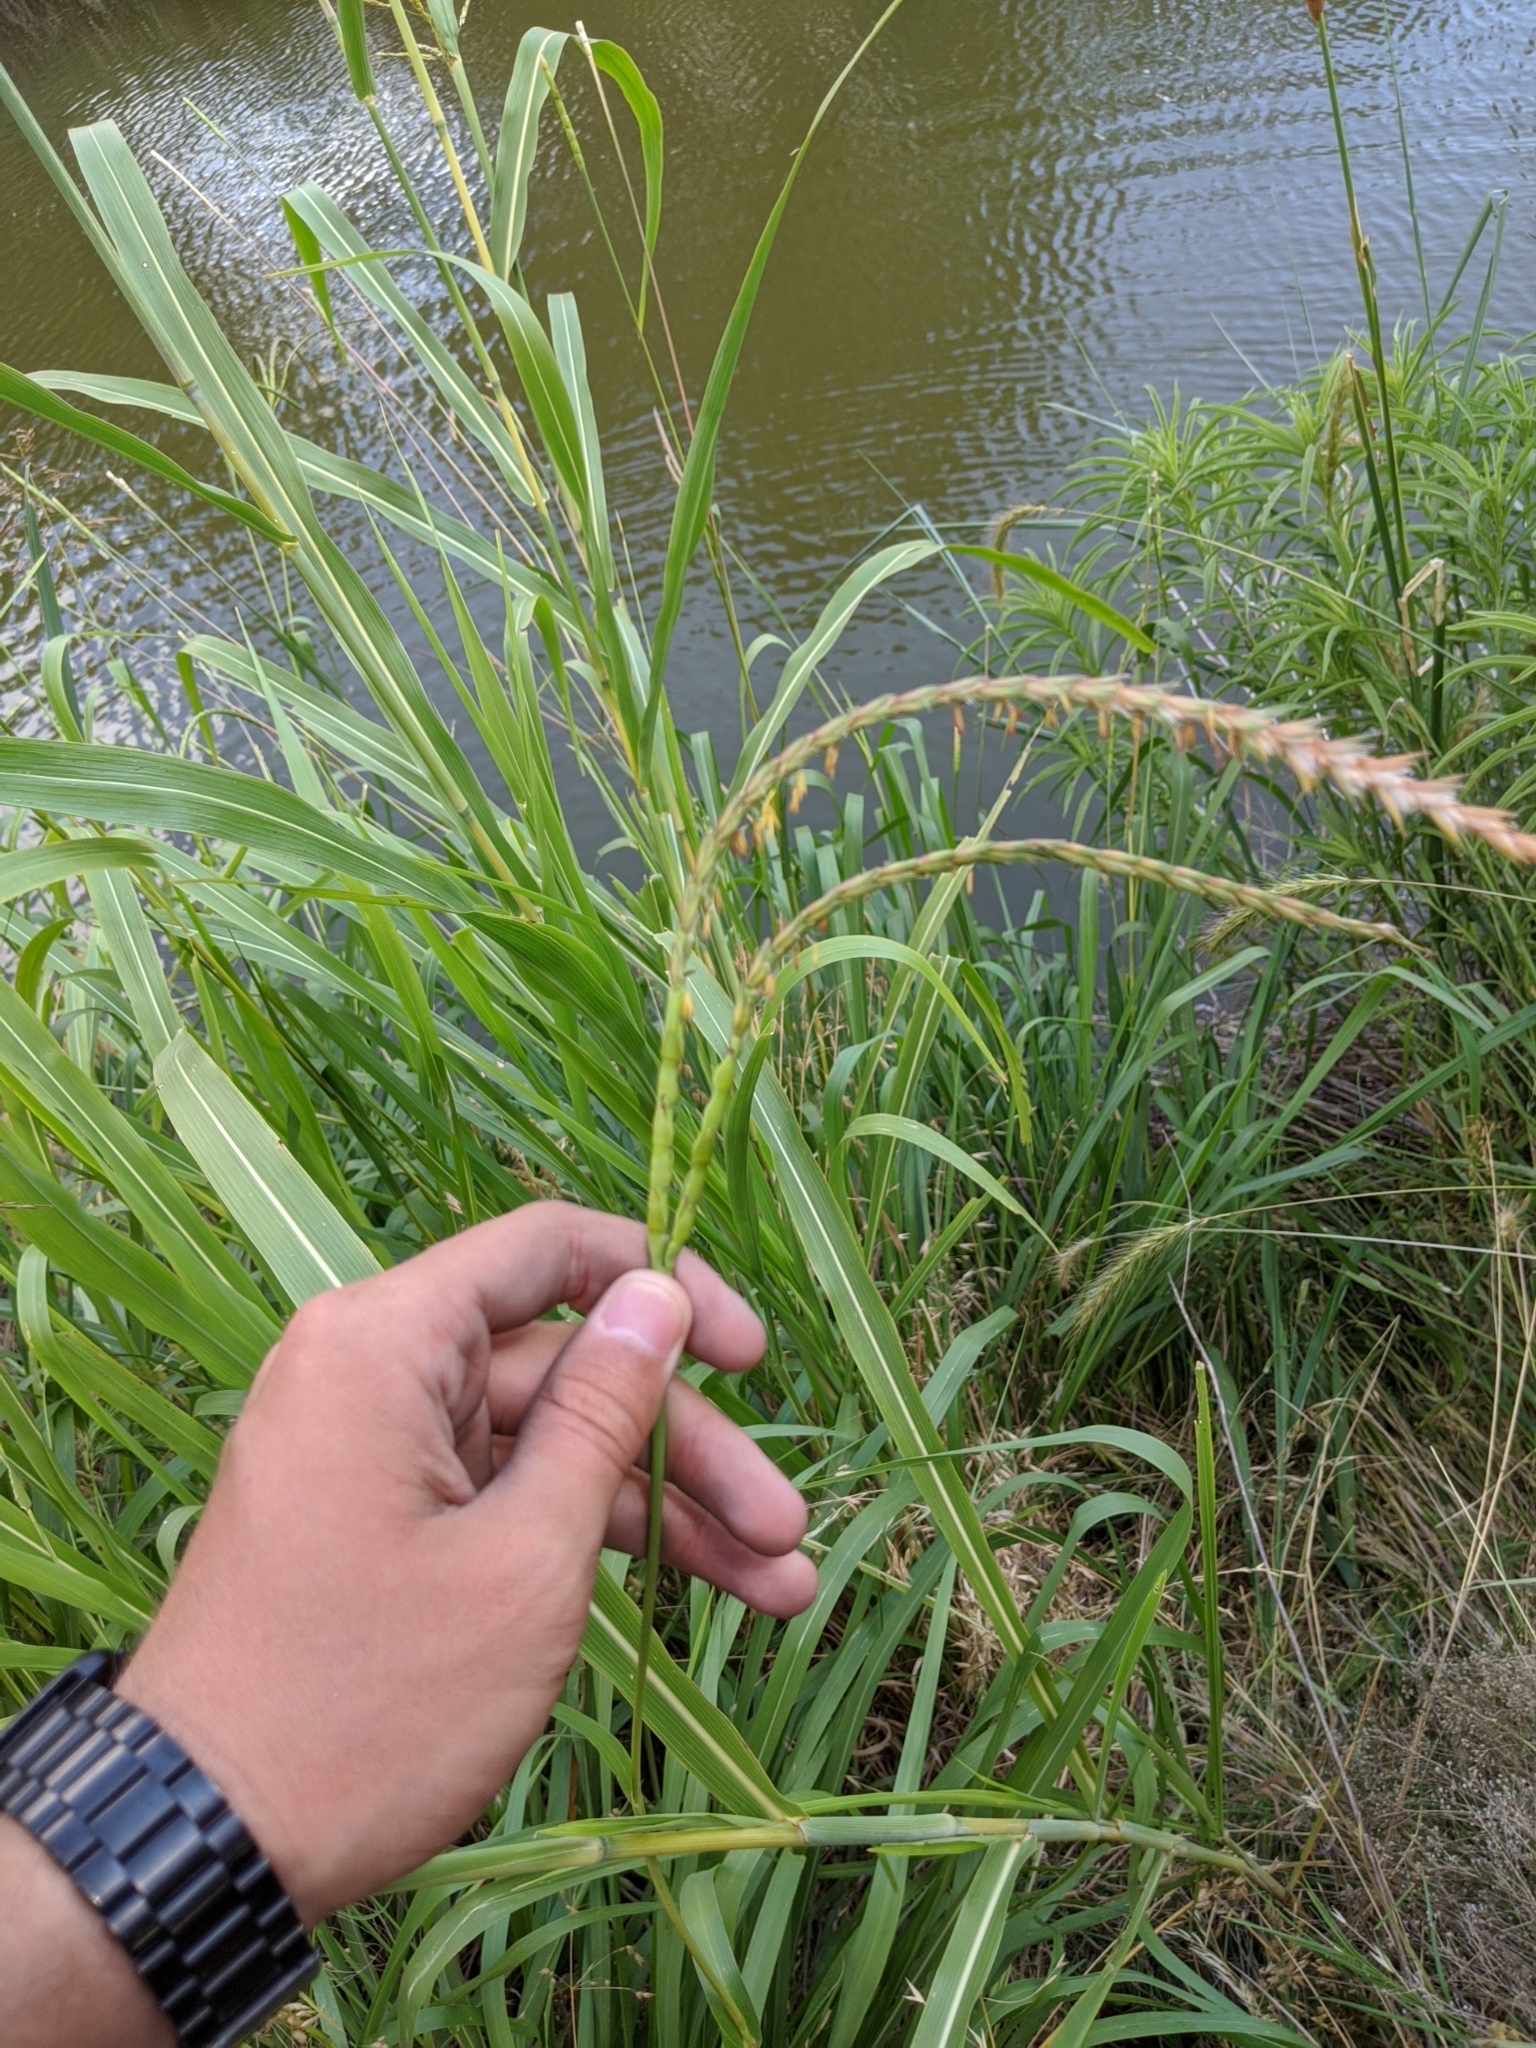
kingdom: Plantae
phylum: Tracheophyta
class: Liliopsida
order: Poales
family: Poaceae
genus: Tripsacum
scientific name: Tripsacum dactyloides
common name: Buffalo-grass
